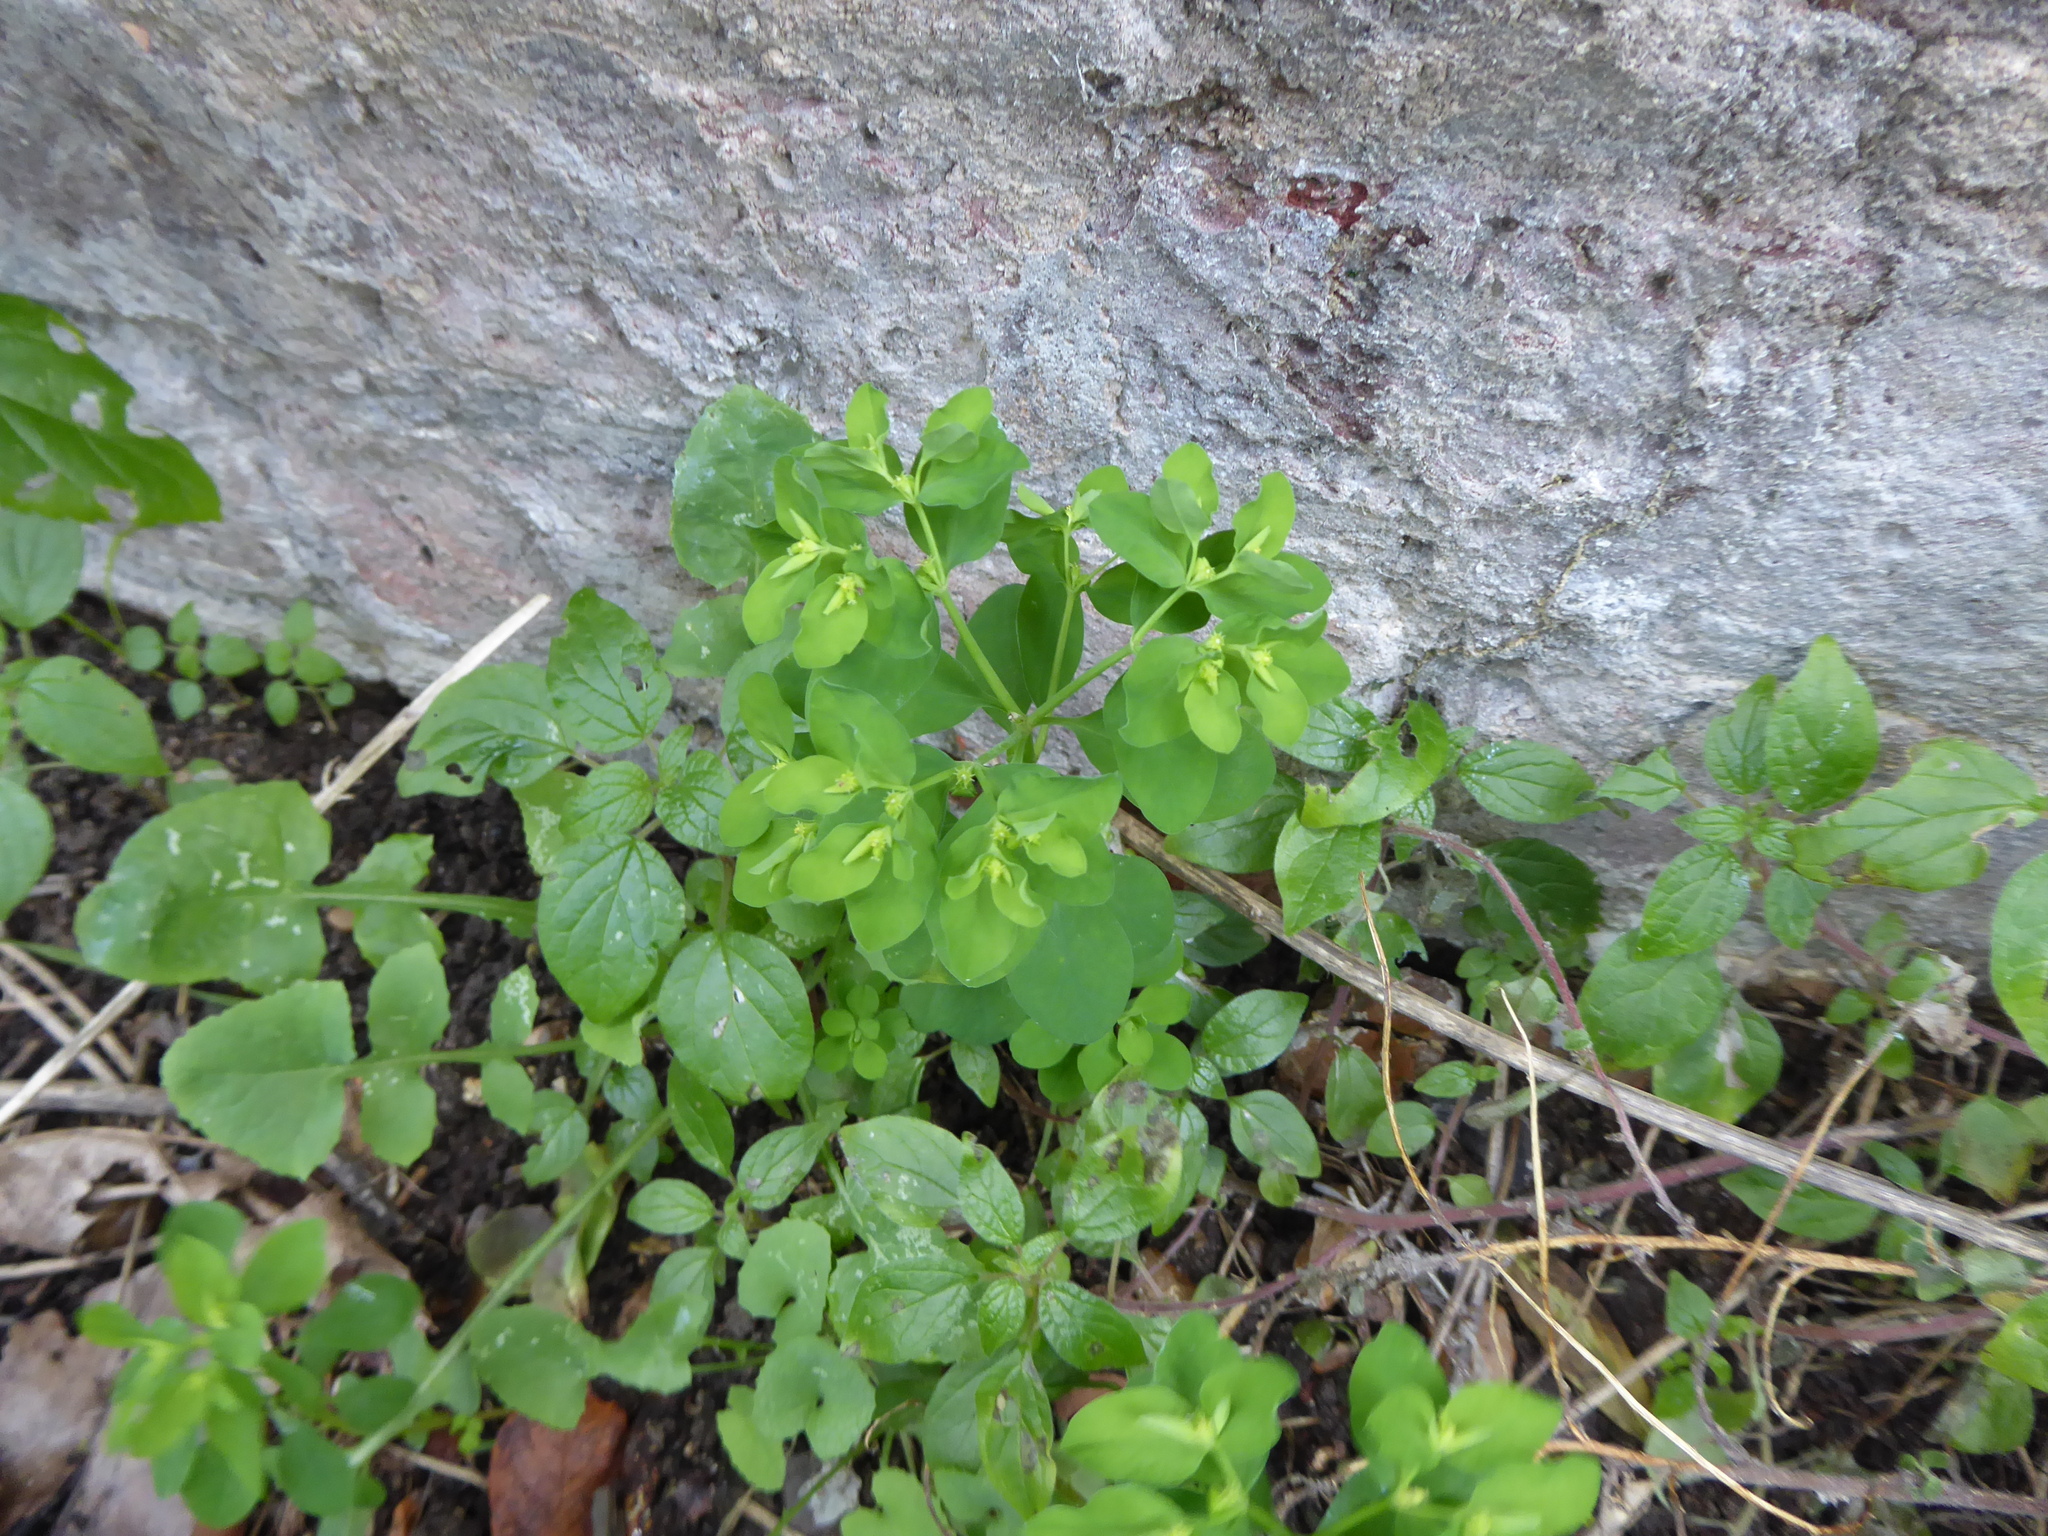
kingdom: Plantae
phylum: Tracheophyta
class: Magnoliopsida
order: Malpighiales
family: Euphorbiaceae
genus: Euphorbia
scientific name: Euphorbia peplus
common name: Petty spurge
